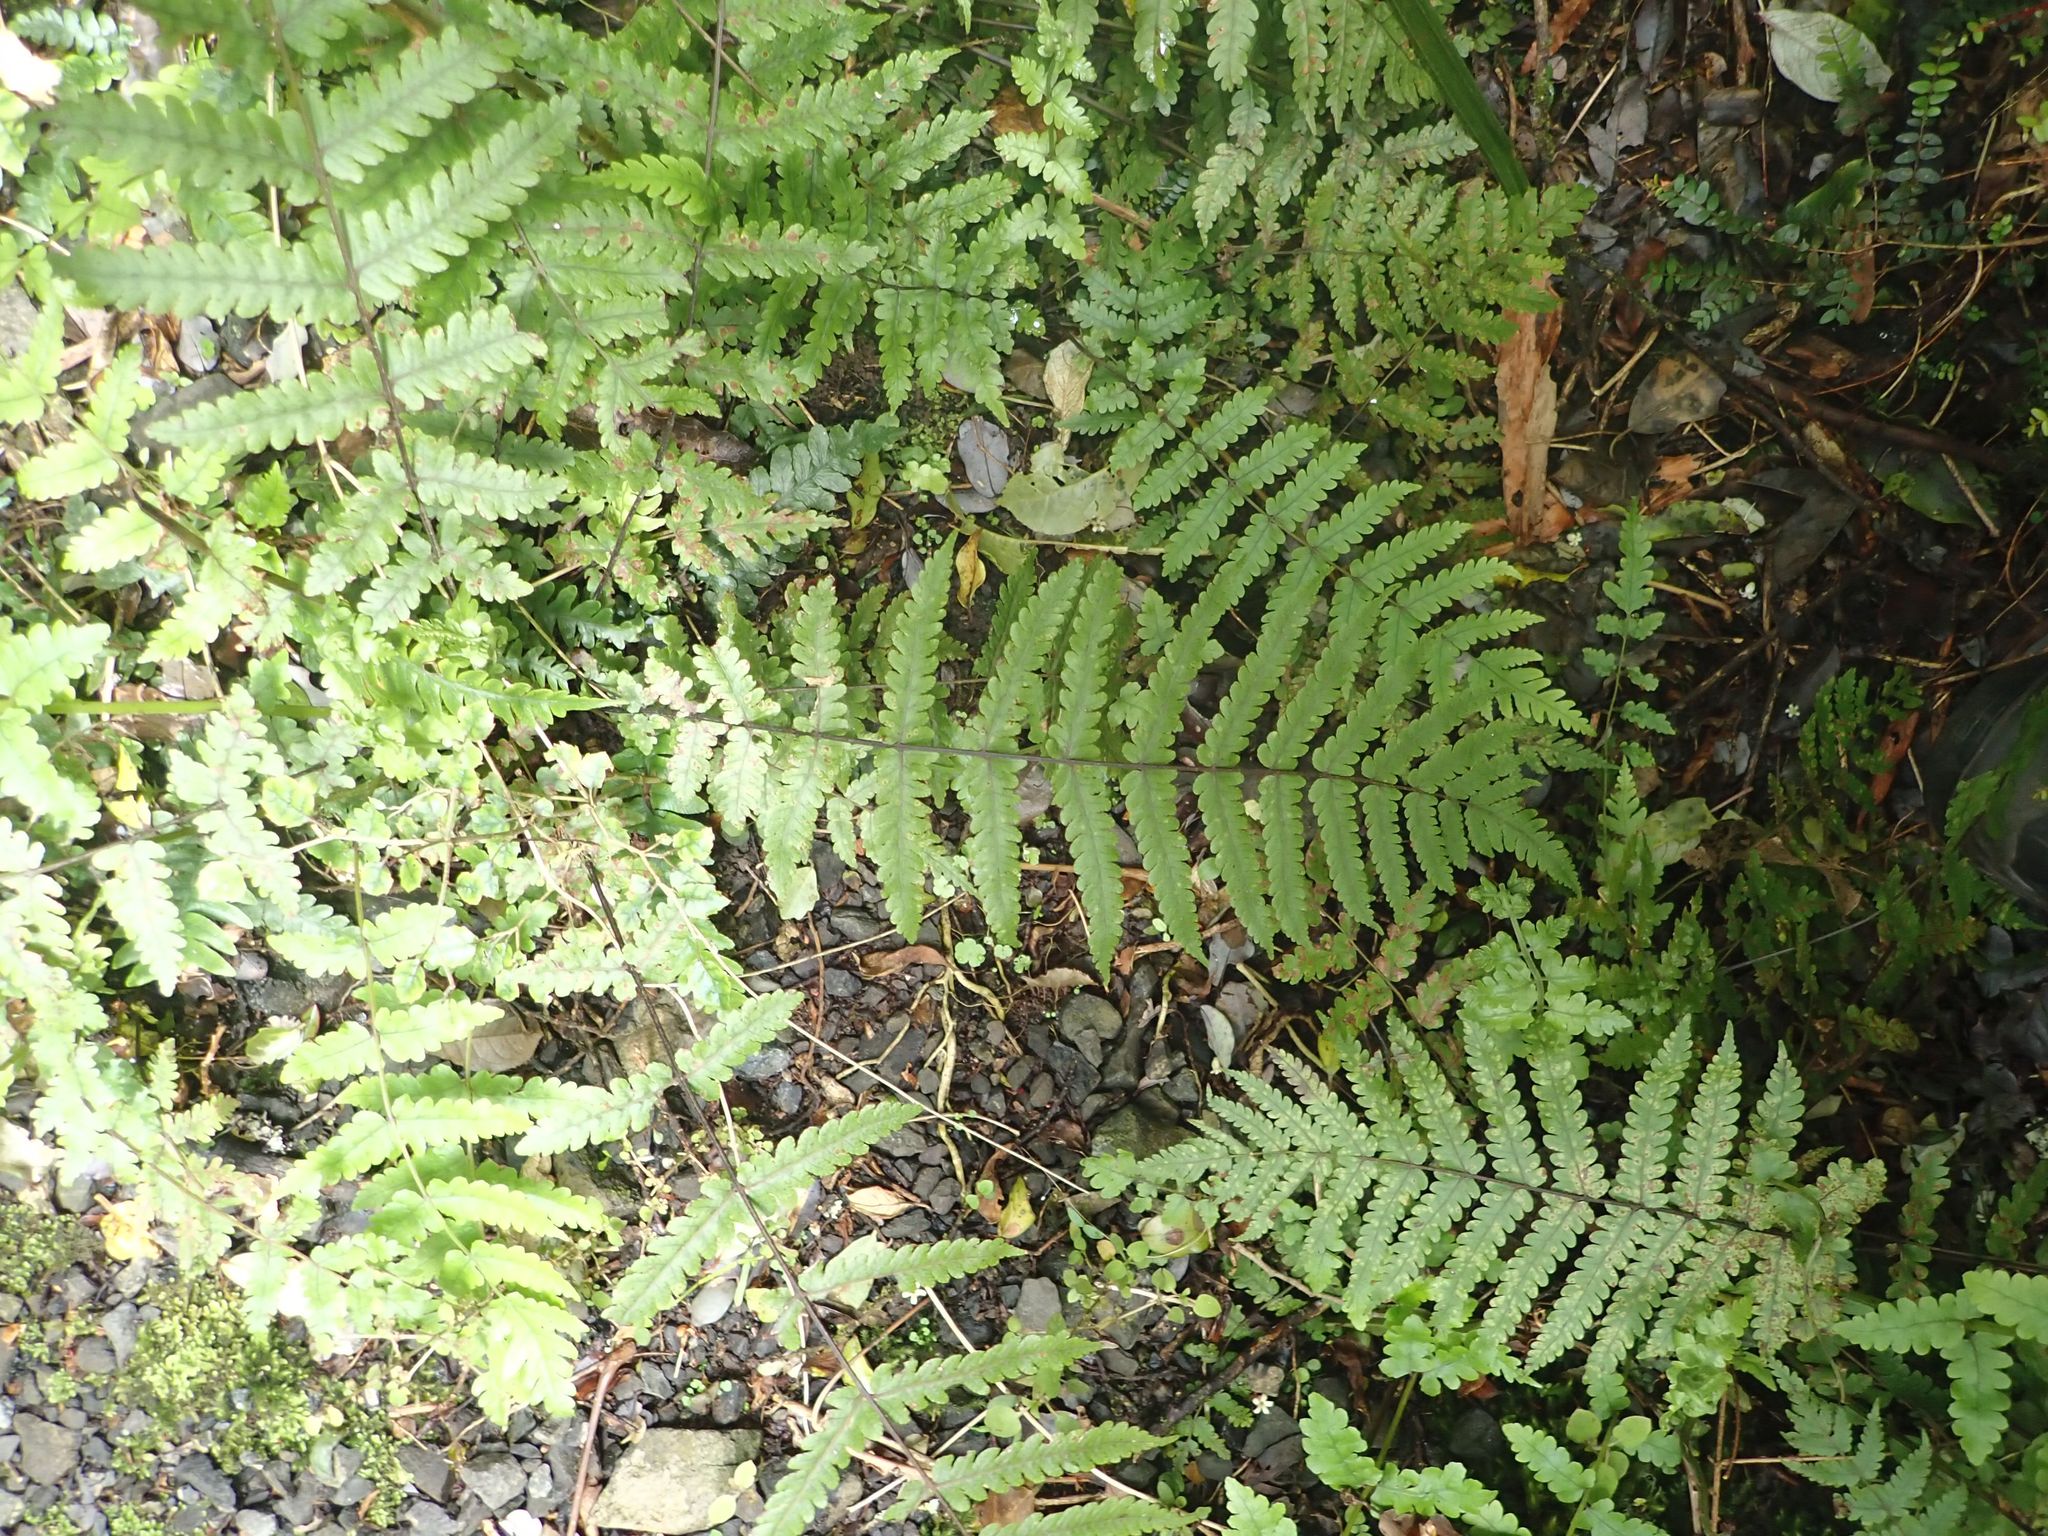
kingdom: Plantae
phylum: Tracheophyta
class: Polypodiopsida
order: Polypodiales
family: Thelypteridaceae
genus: Pakau
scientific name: Pakau pennigera
